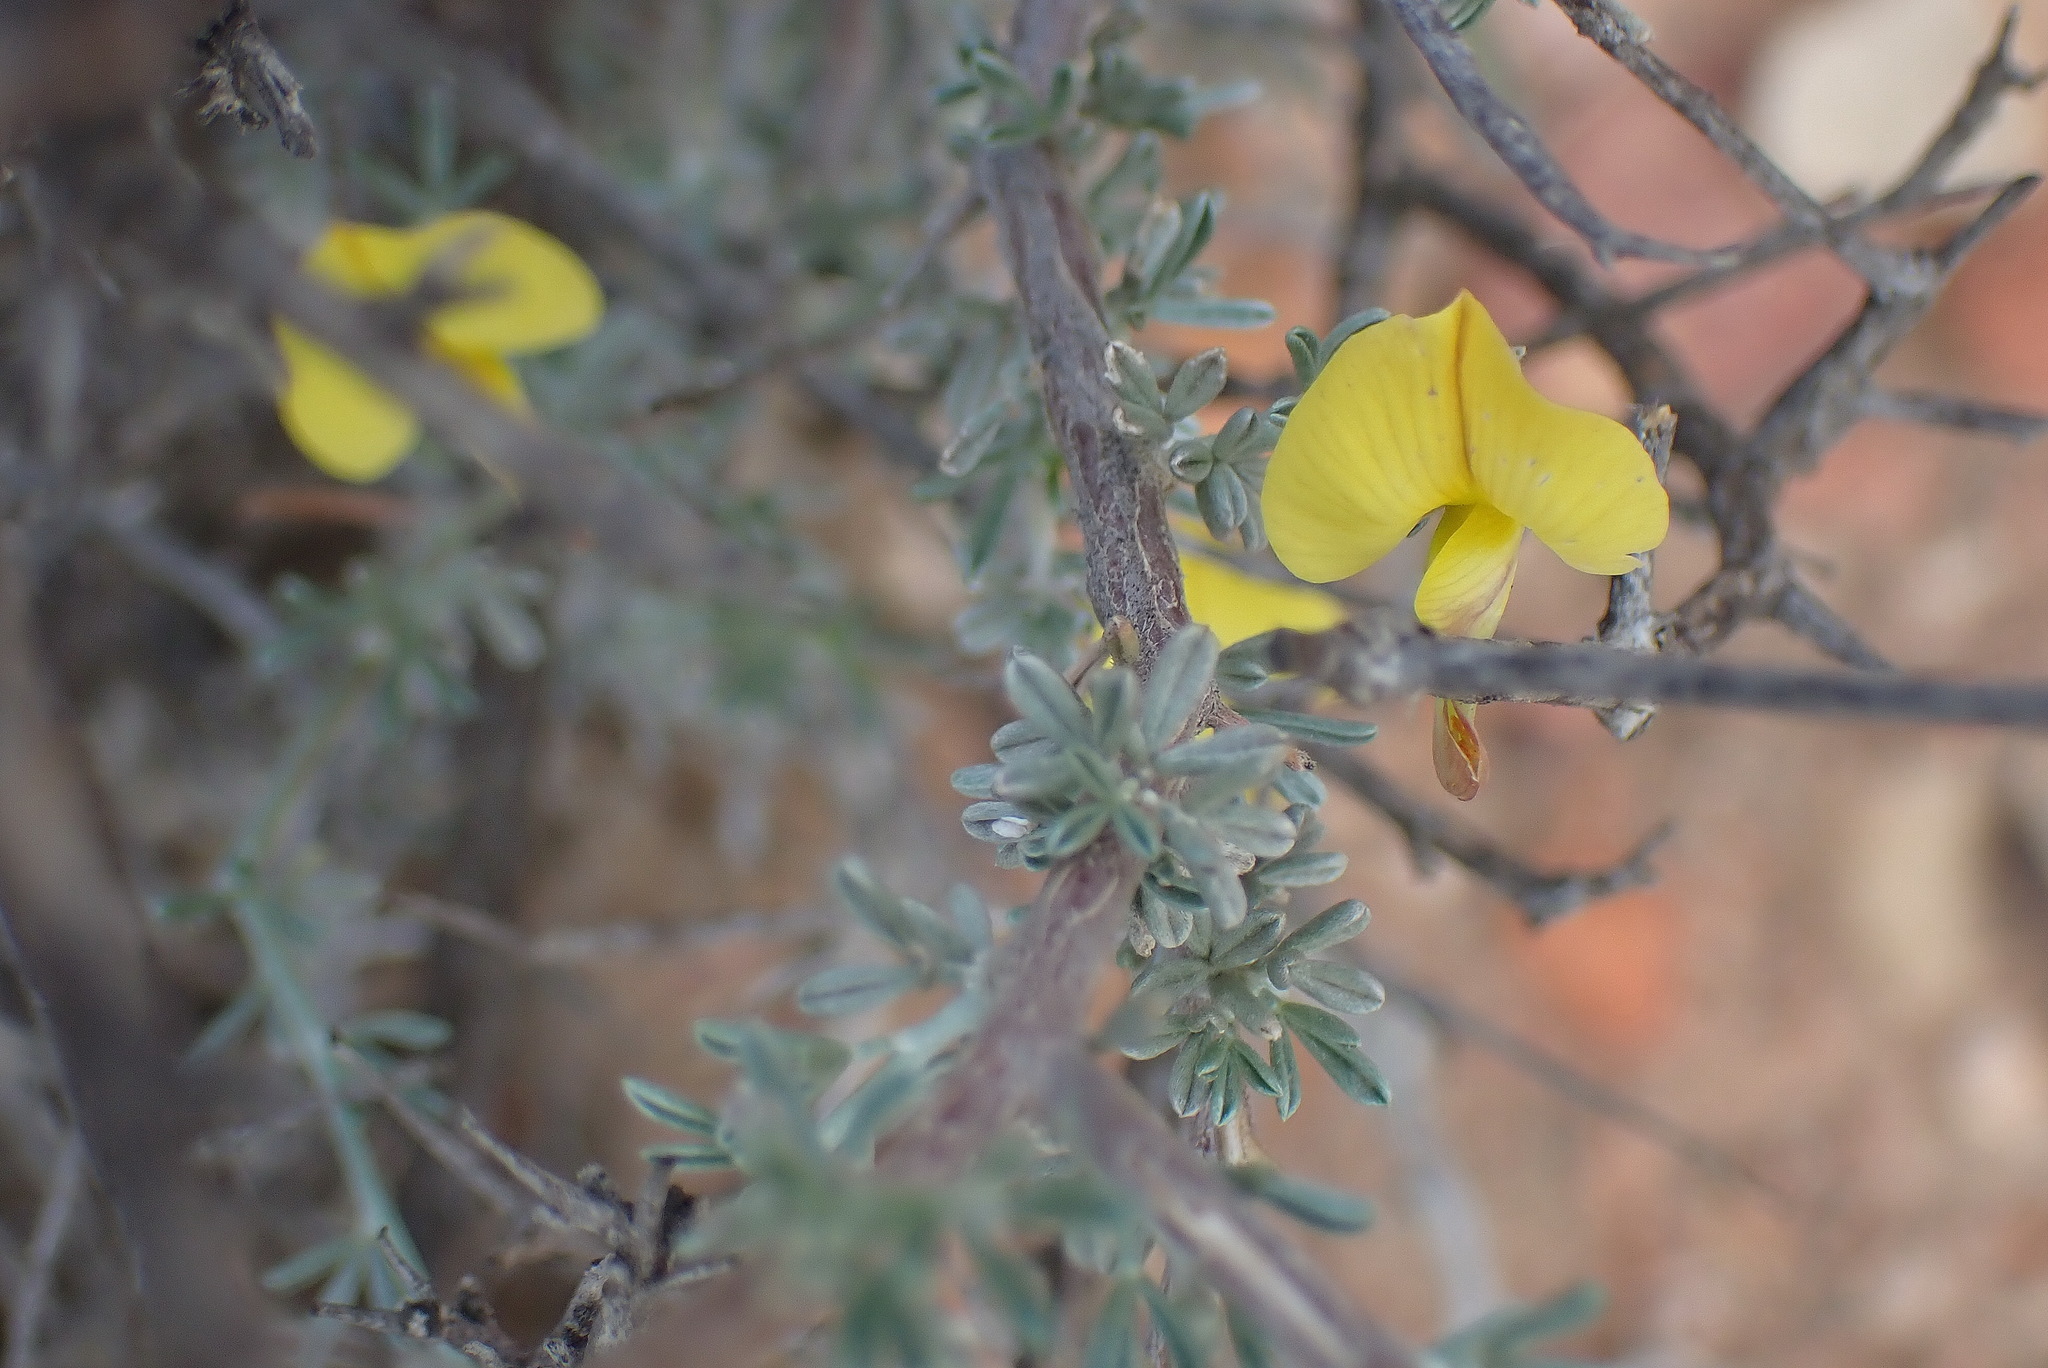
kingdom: Plantae
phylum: Tracheophyta
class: Magnoliopsida
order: Fabales
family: Fabaceae
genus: Lotononis
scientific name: Lotononis dahlgrenii
